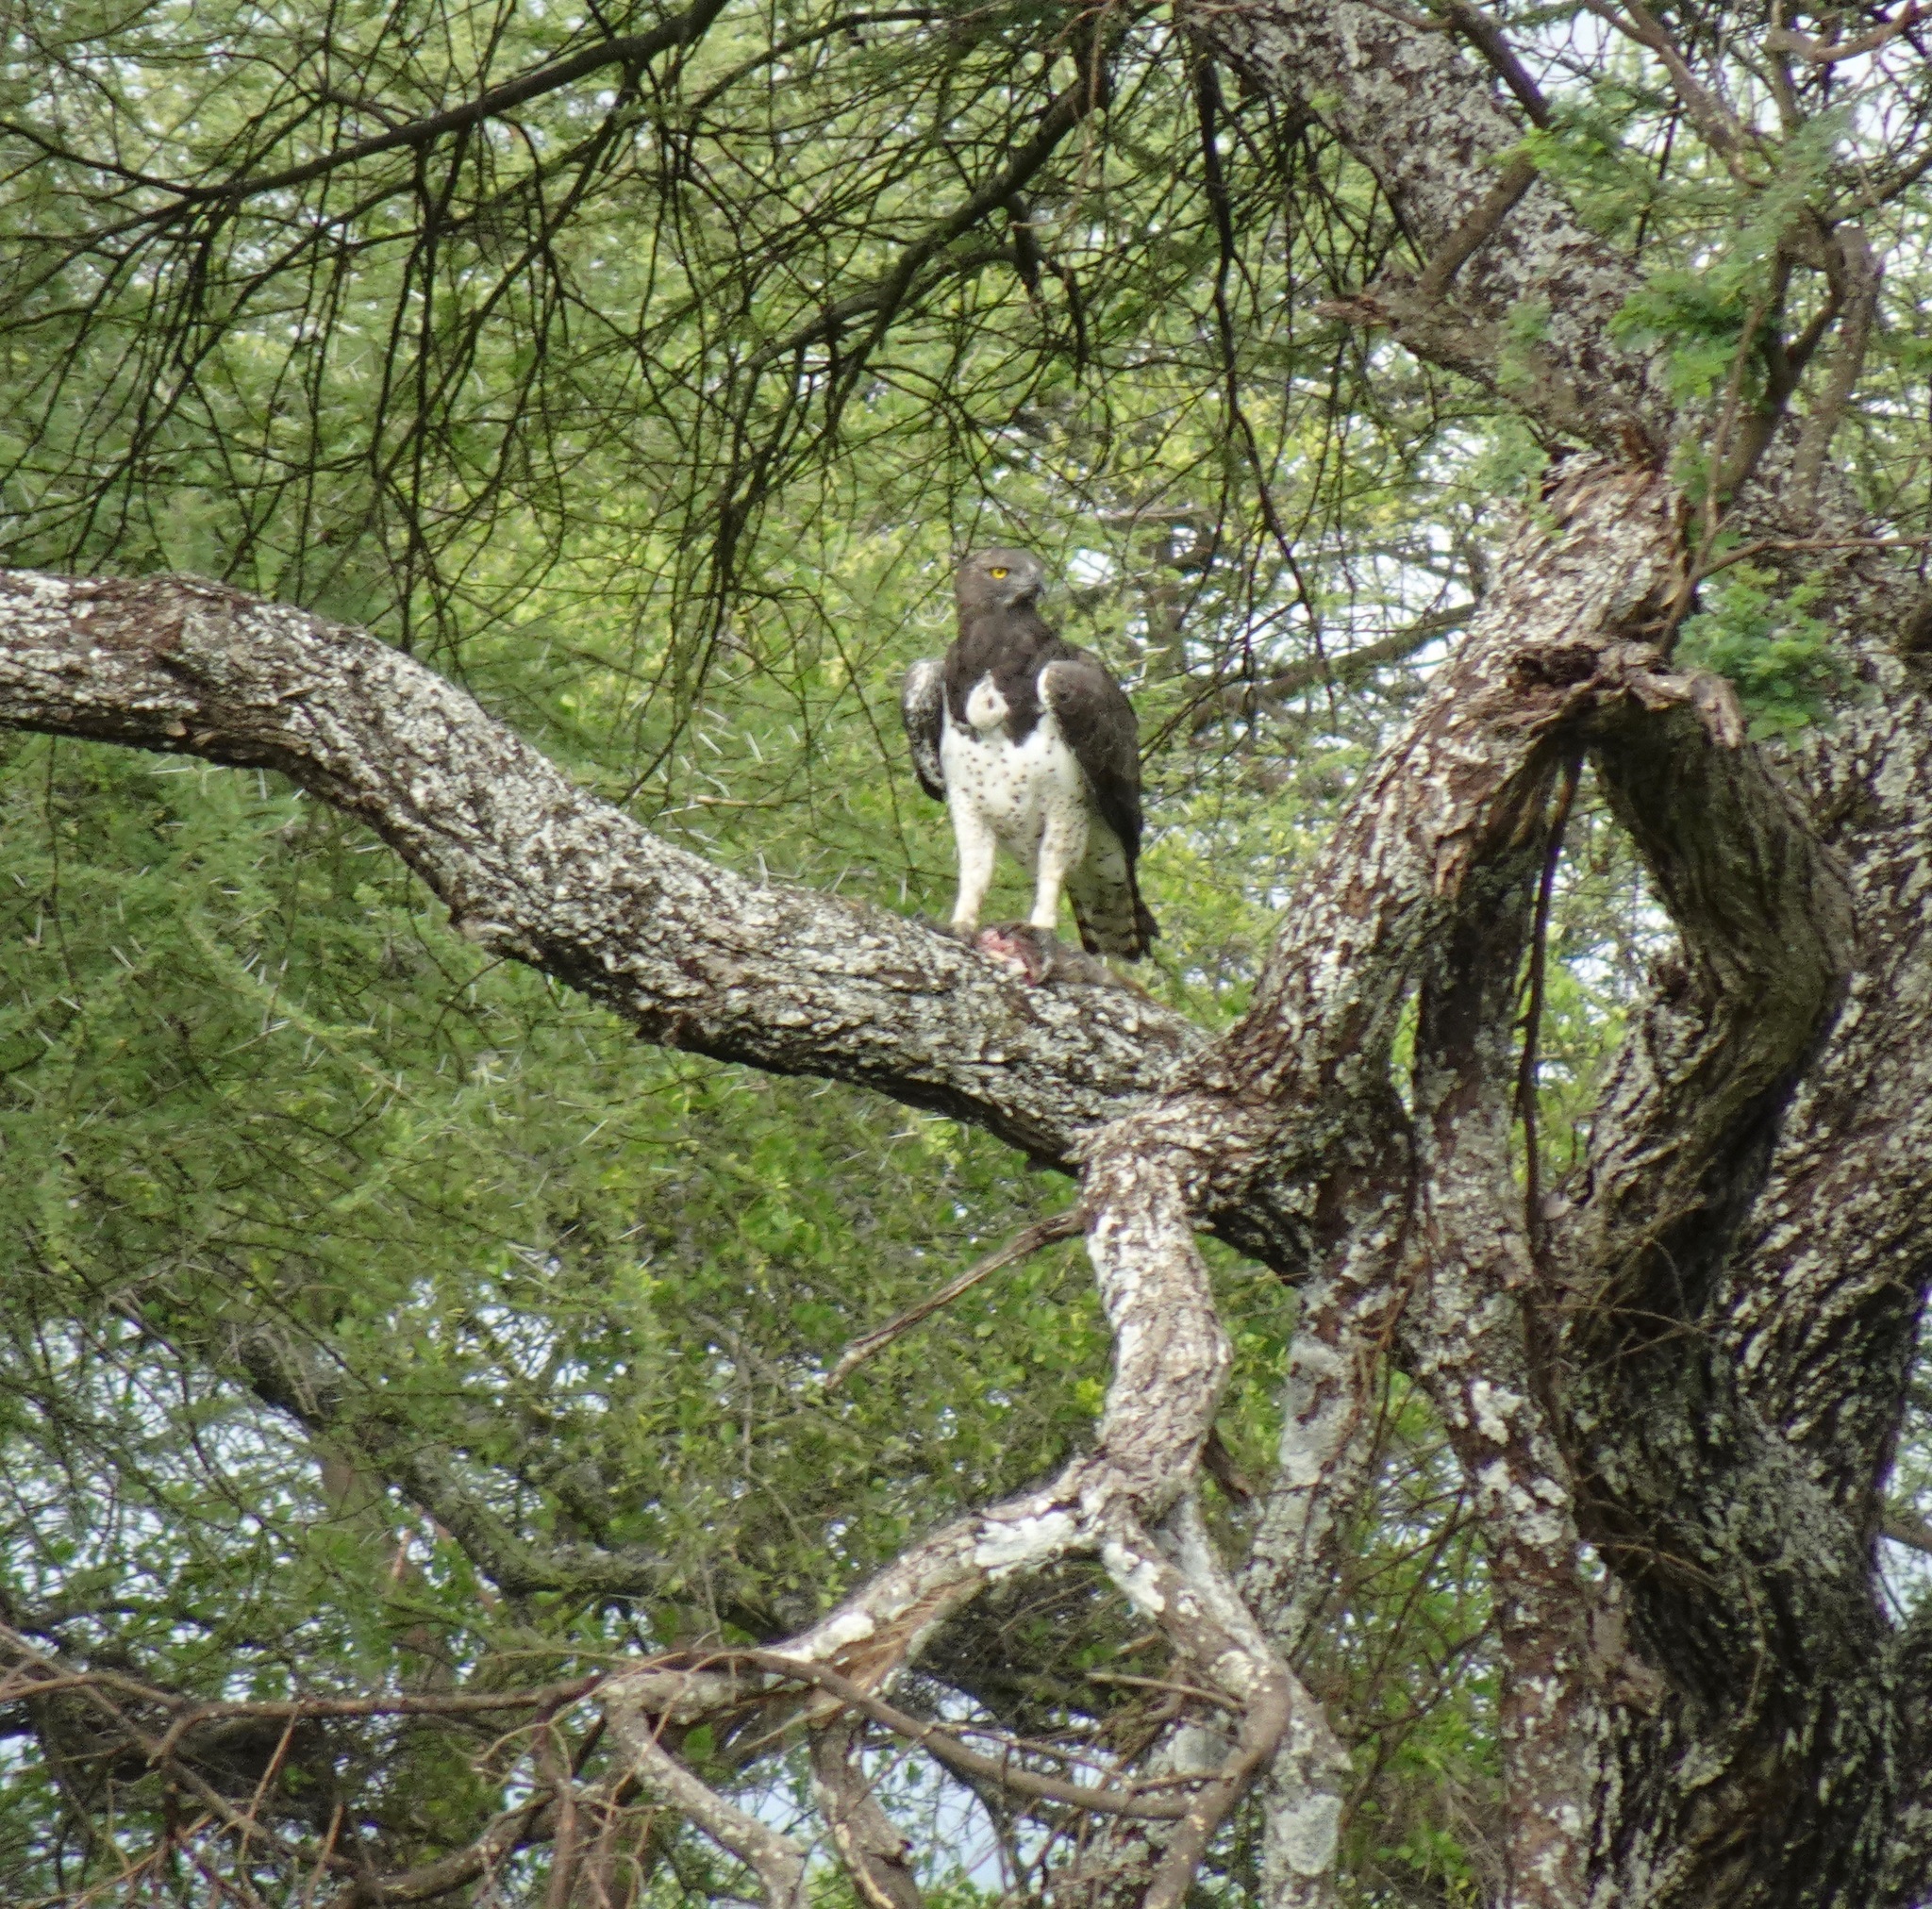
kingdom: Animalia
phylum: Chordata
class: Aves
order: Accipitriformes
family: Accipitridae
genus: Polemaetus
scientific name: Polemaetus bellicosus
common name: Martial eagle
